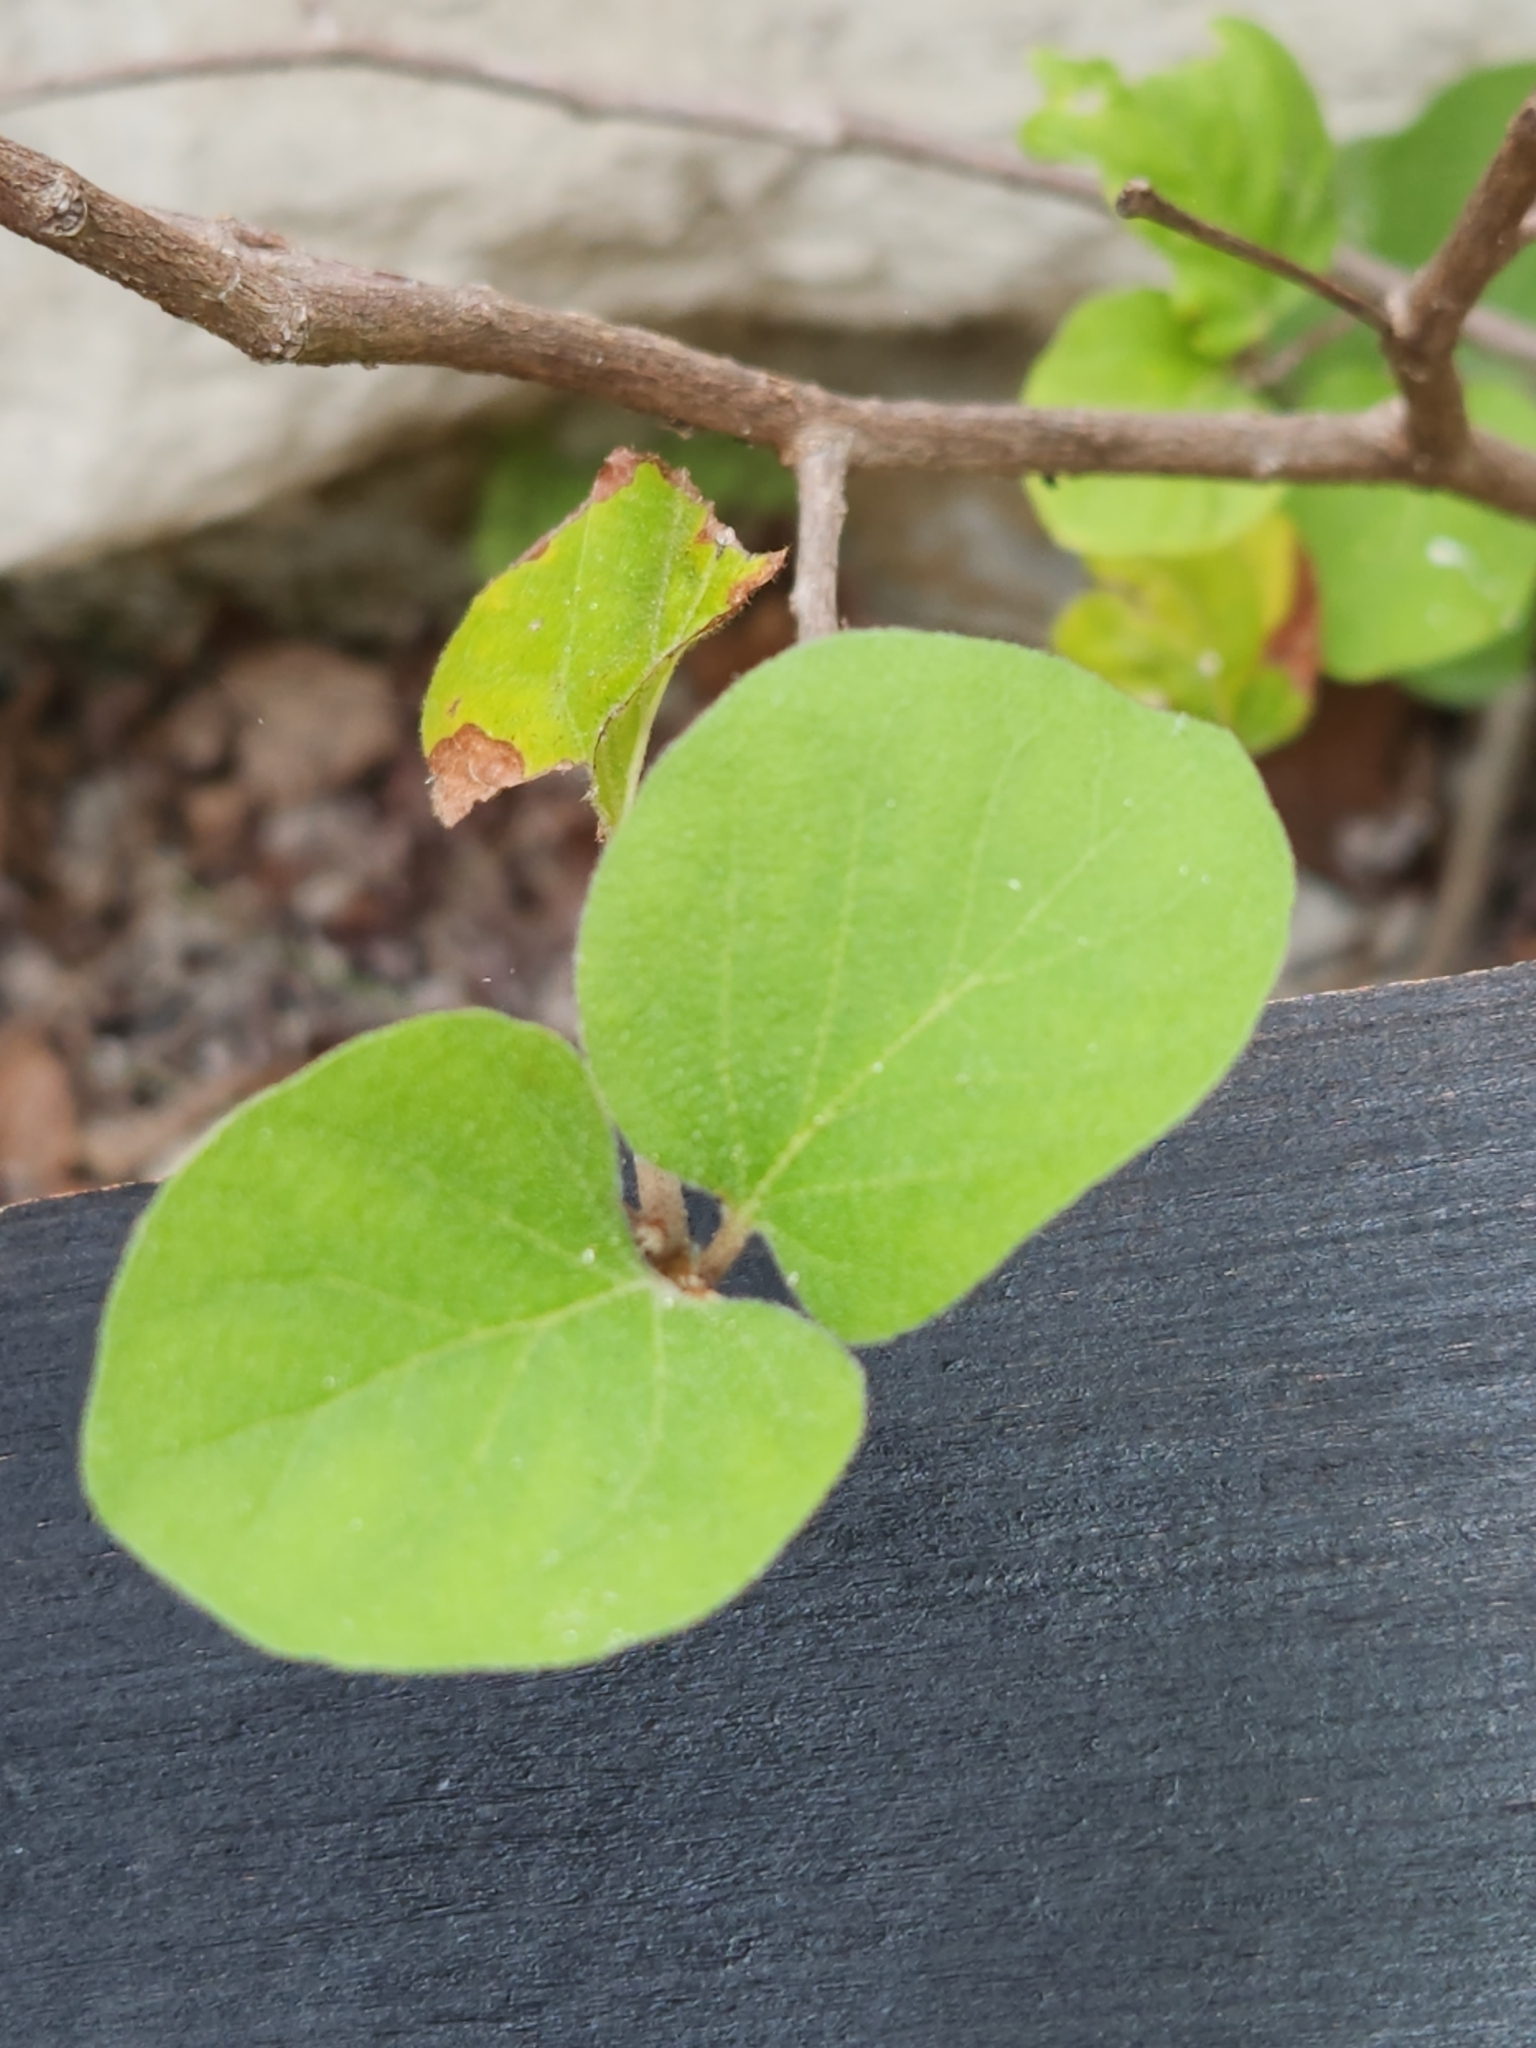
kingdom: Plantae
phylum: Tracheophyta
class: Magnoliopsida
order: Ericales
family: Styracaceae
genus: Styrax
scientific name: Styrax platanifolius
